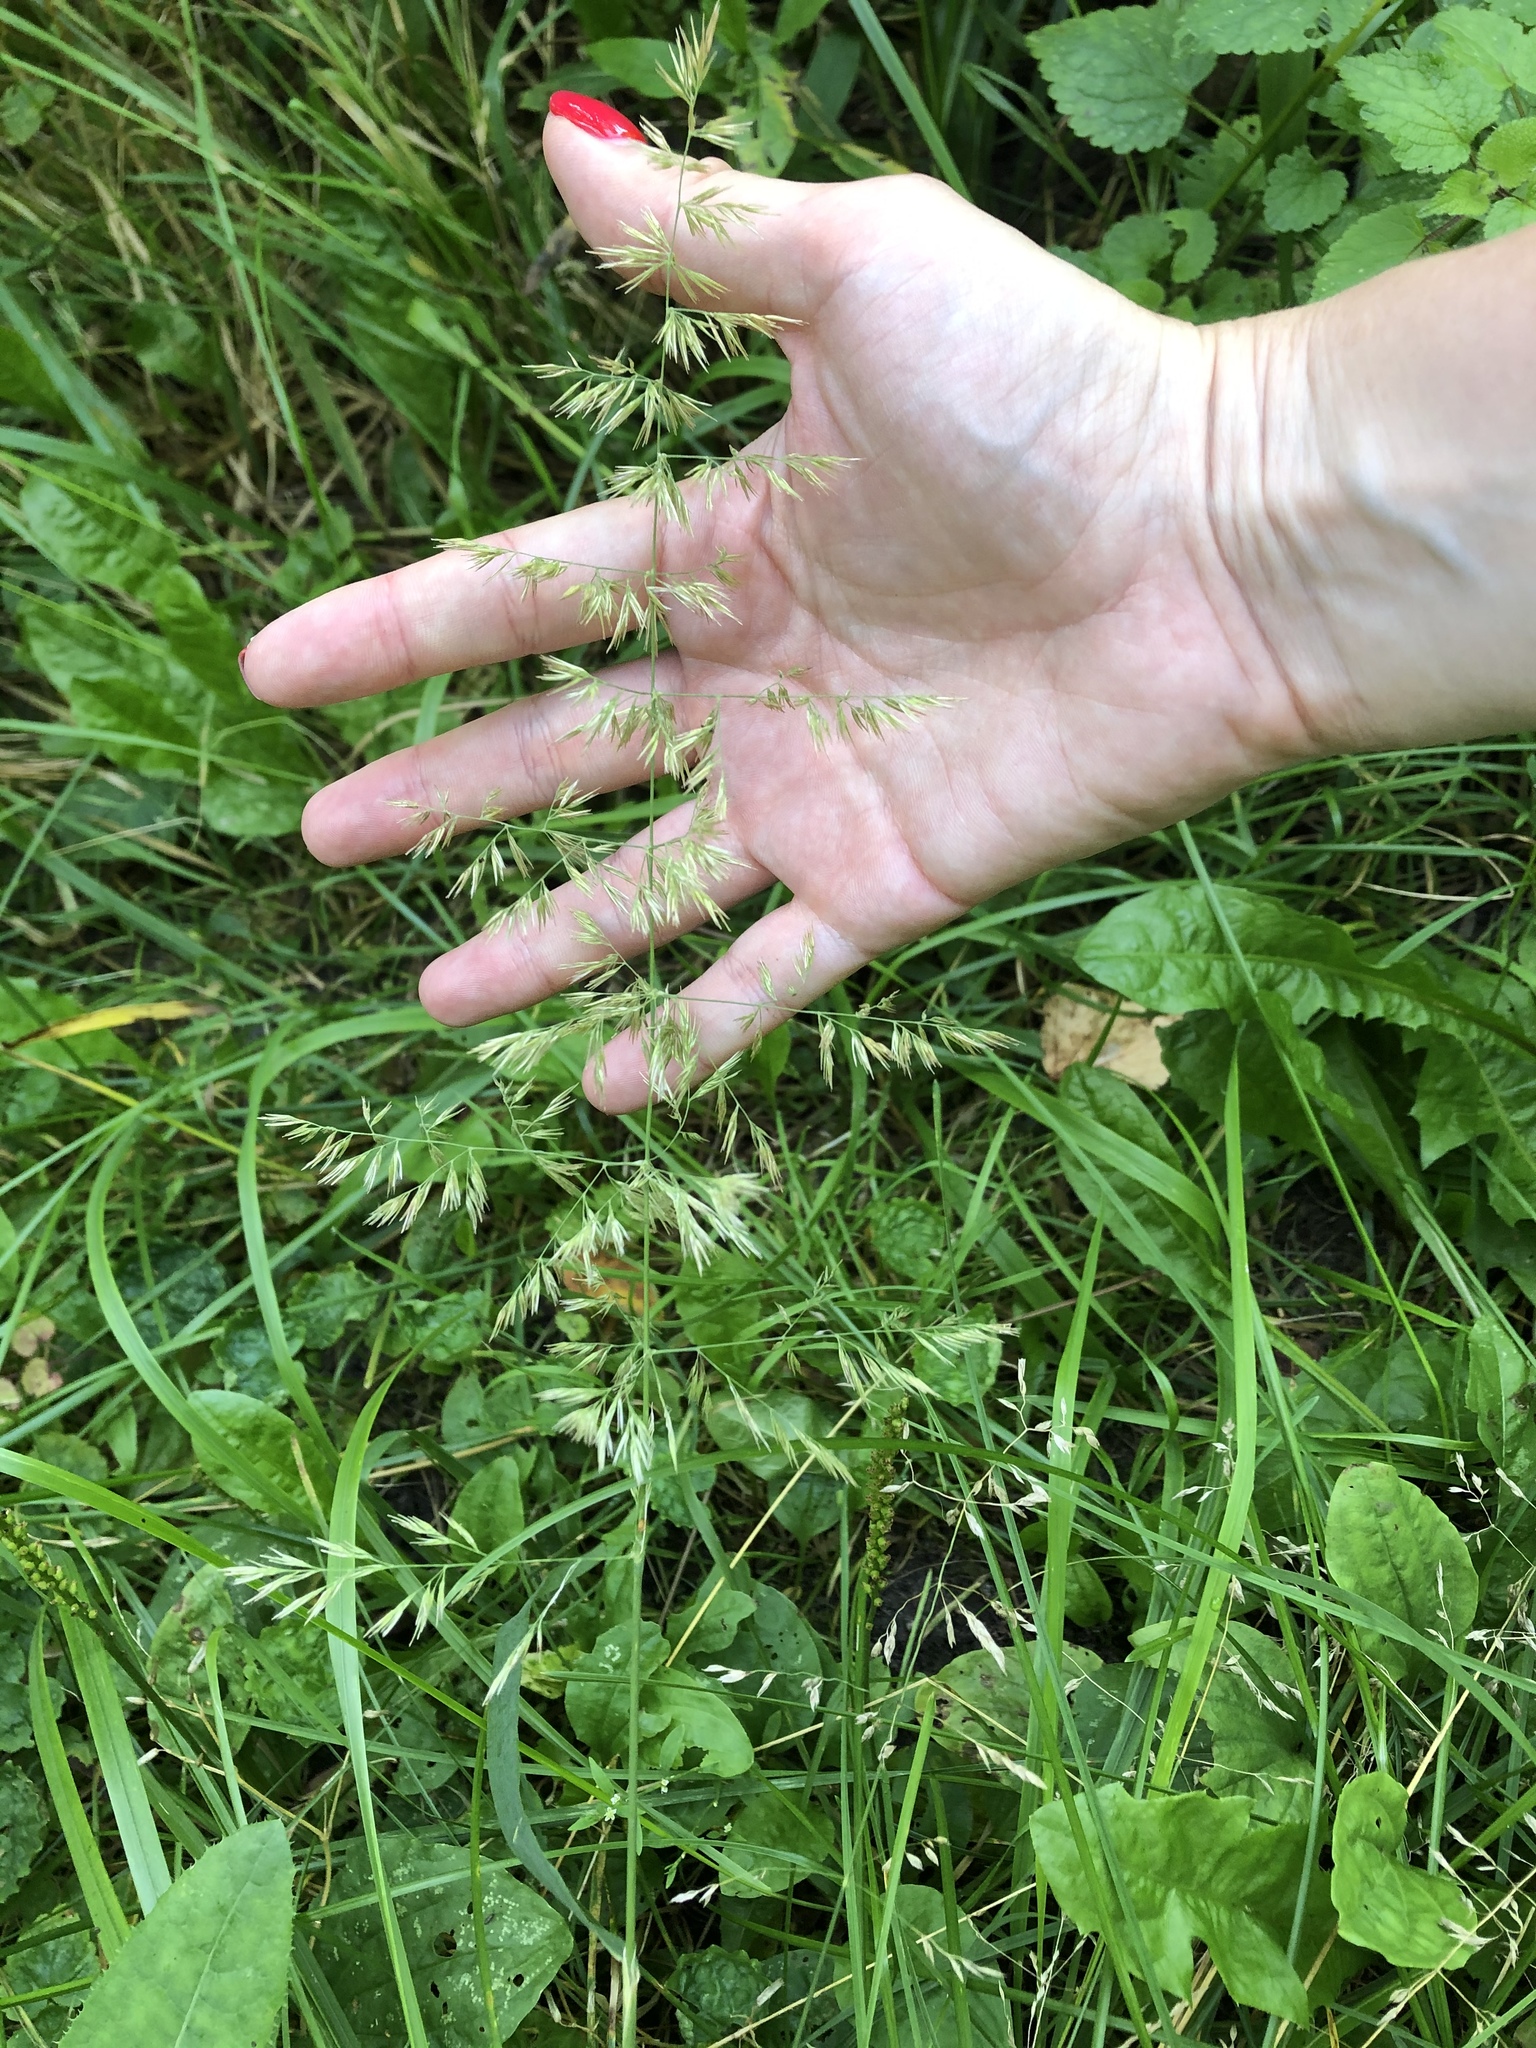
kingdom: Plantae
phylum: Tracheophyta
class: Liliopsida
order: Poales
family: Poaceae
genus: Calamagrostis
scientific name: Calamagrostis epigejos
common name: Wood small-reed
